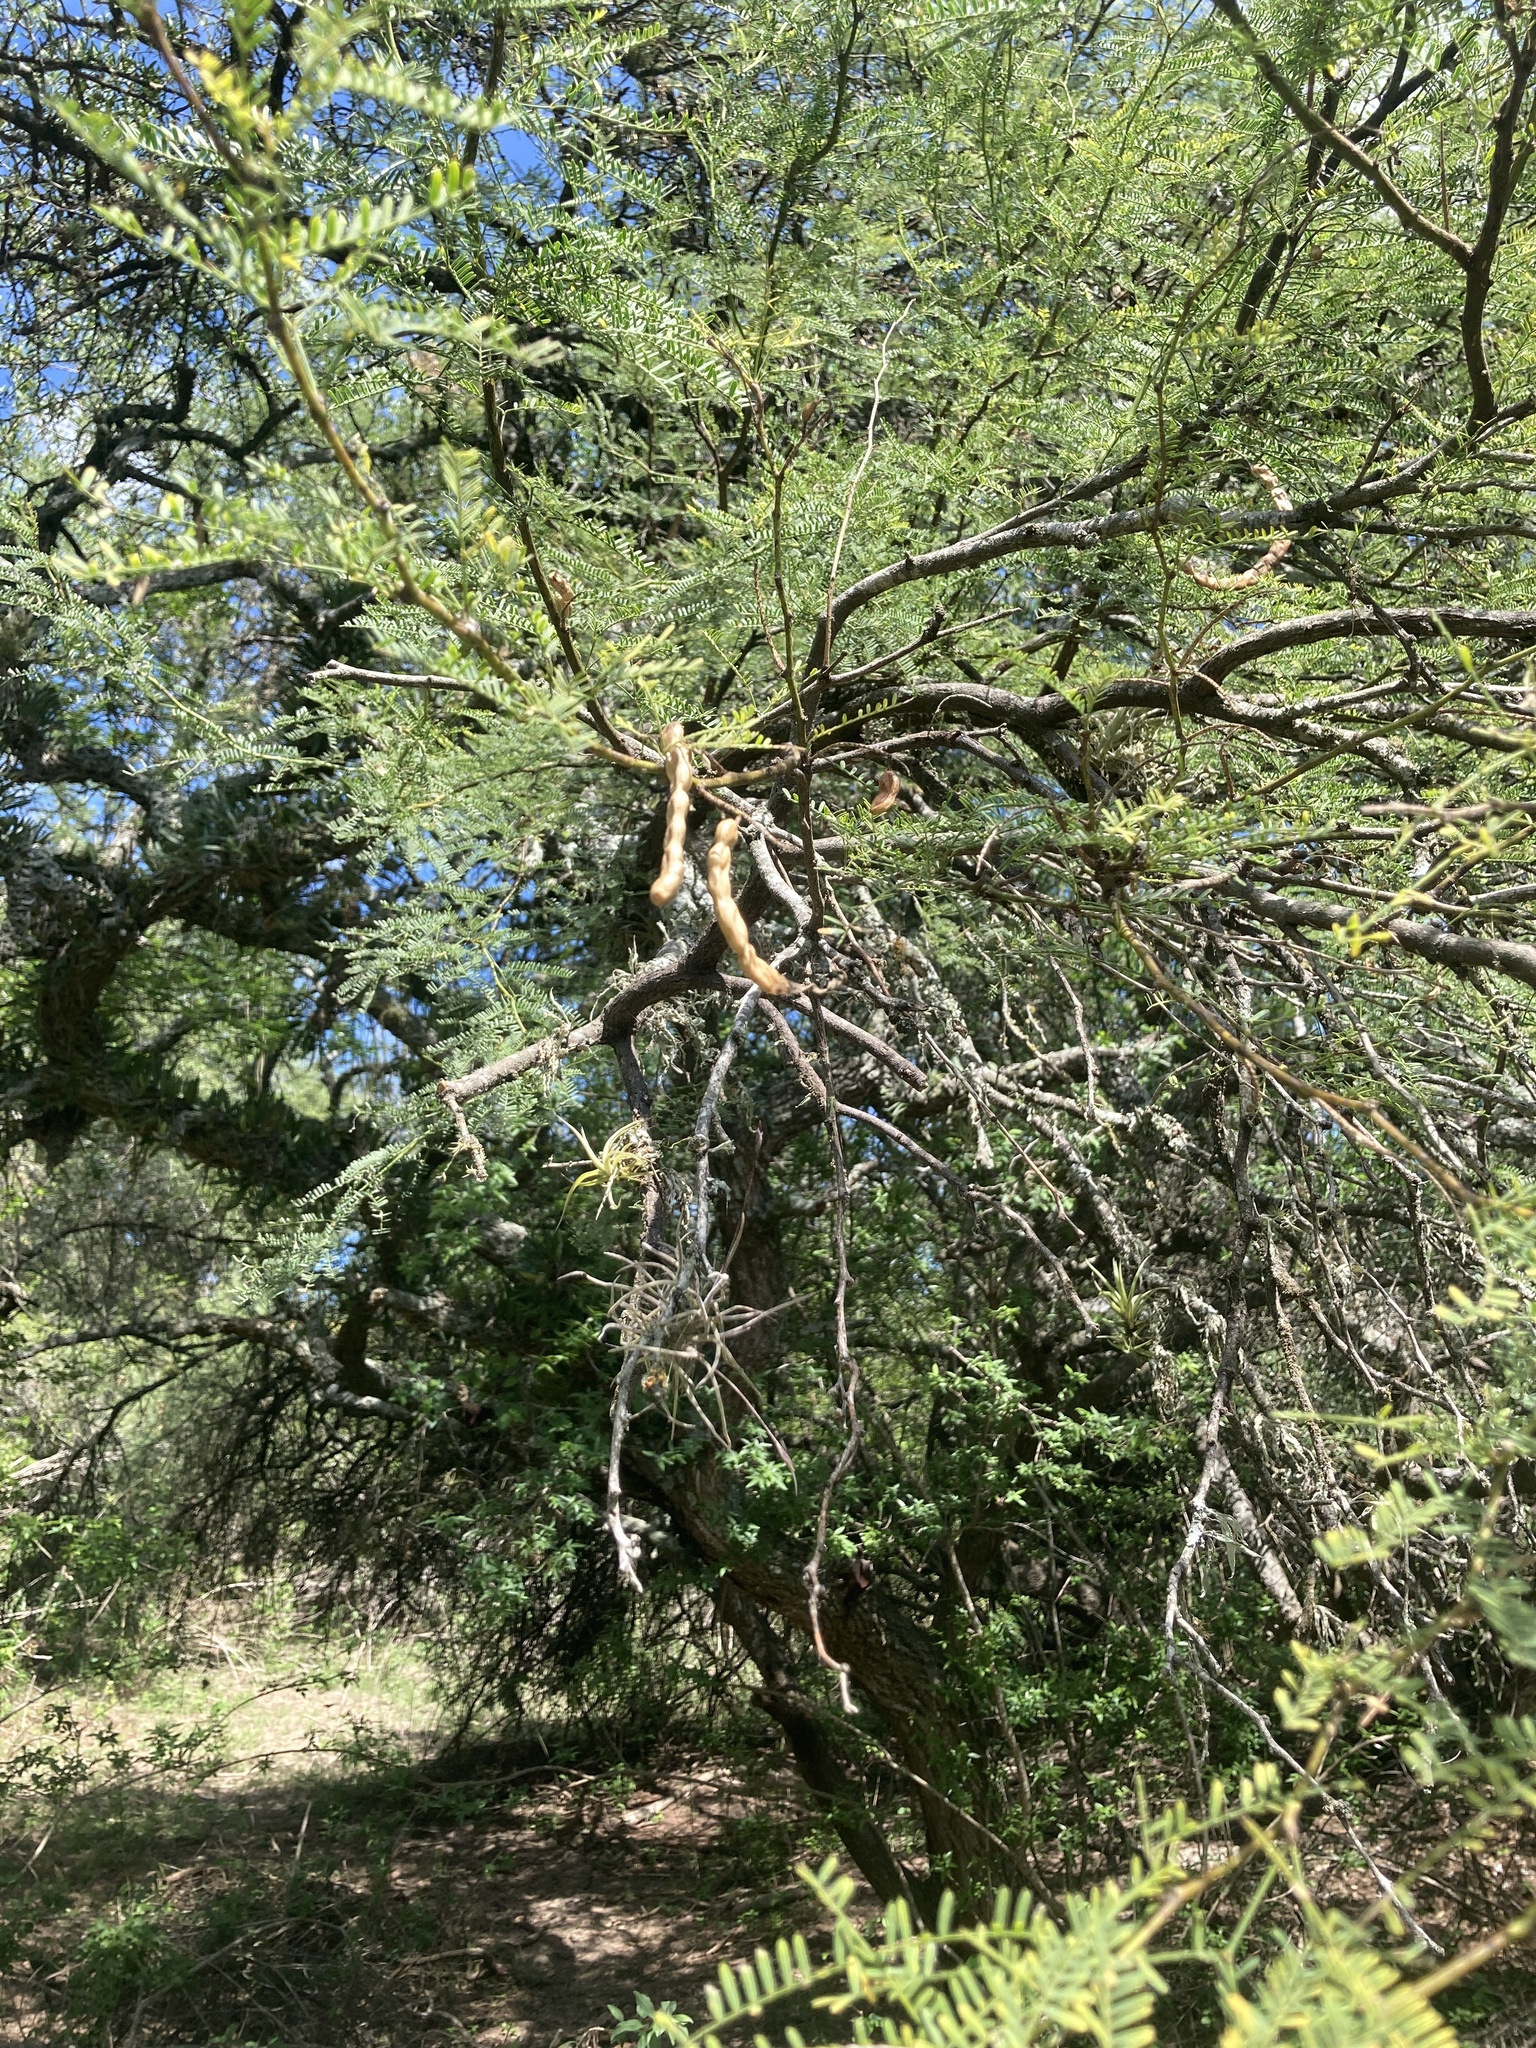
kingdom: Plantae
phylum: Tracheophyta
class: Magnoliopsida
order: Fabales
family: Fabaceae
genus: Prosopis
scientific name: Prosopis nigra
